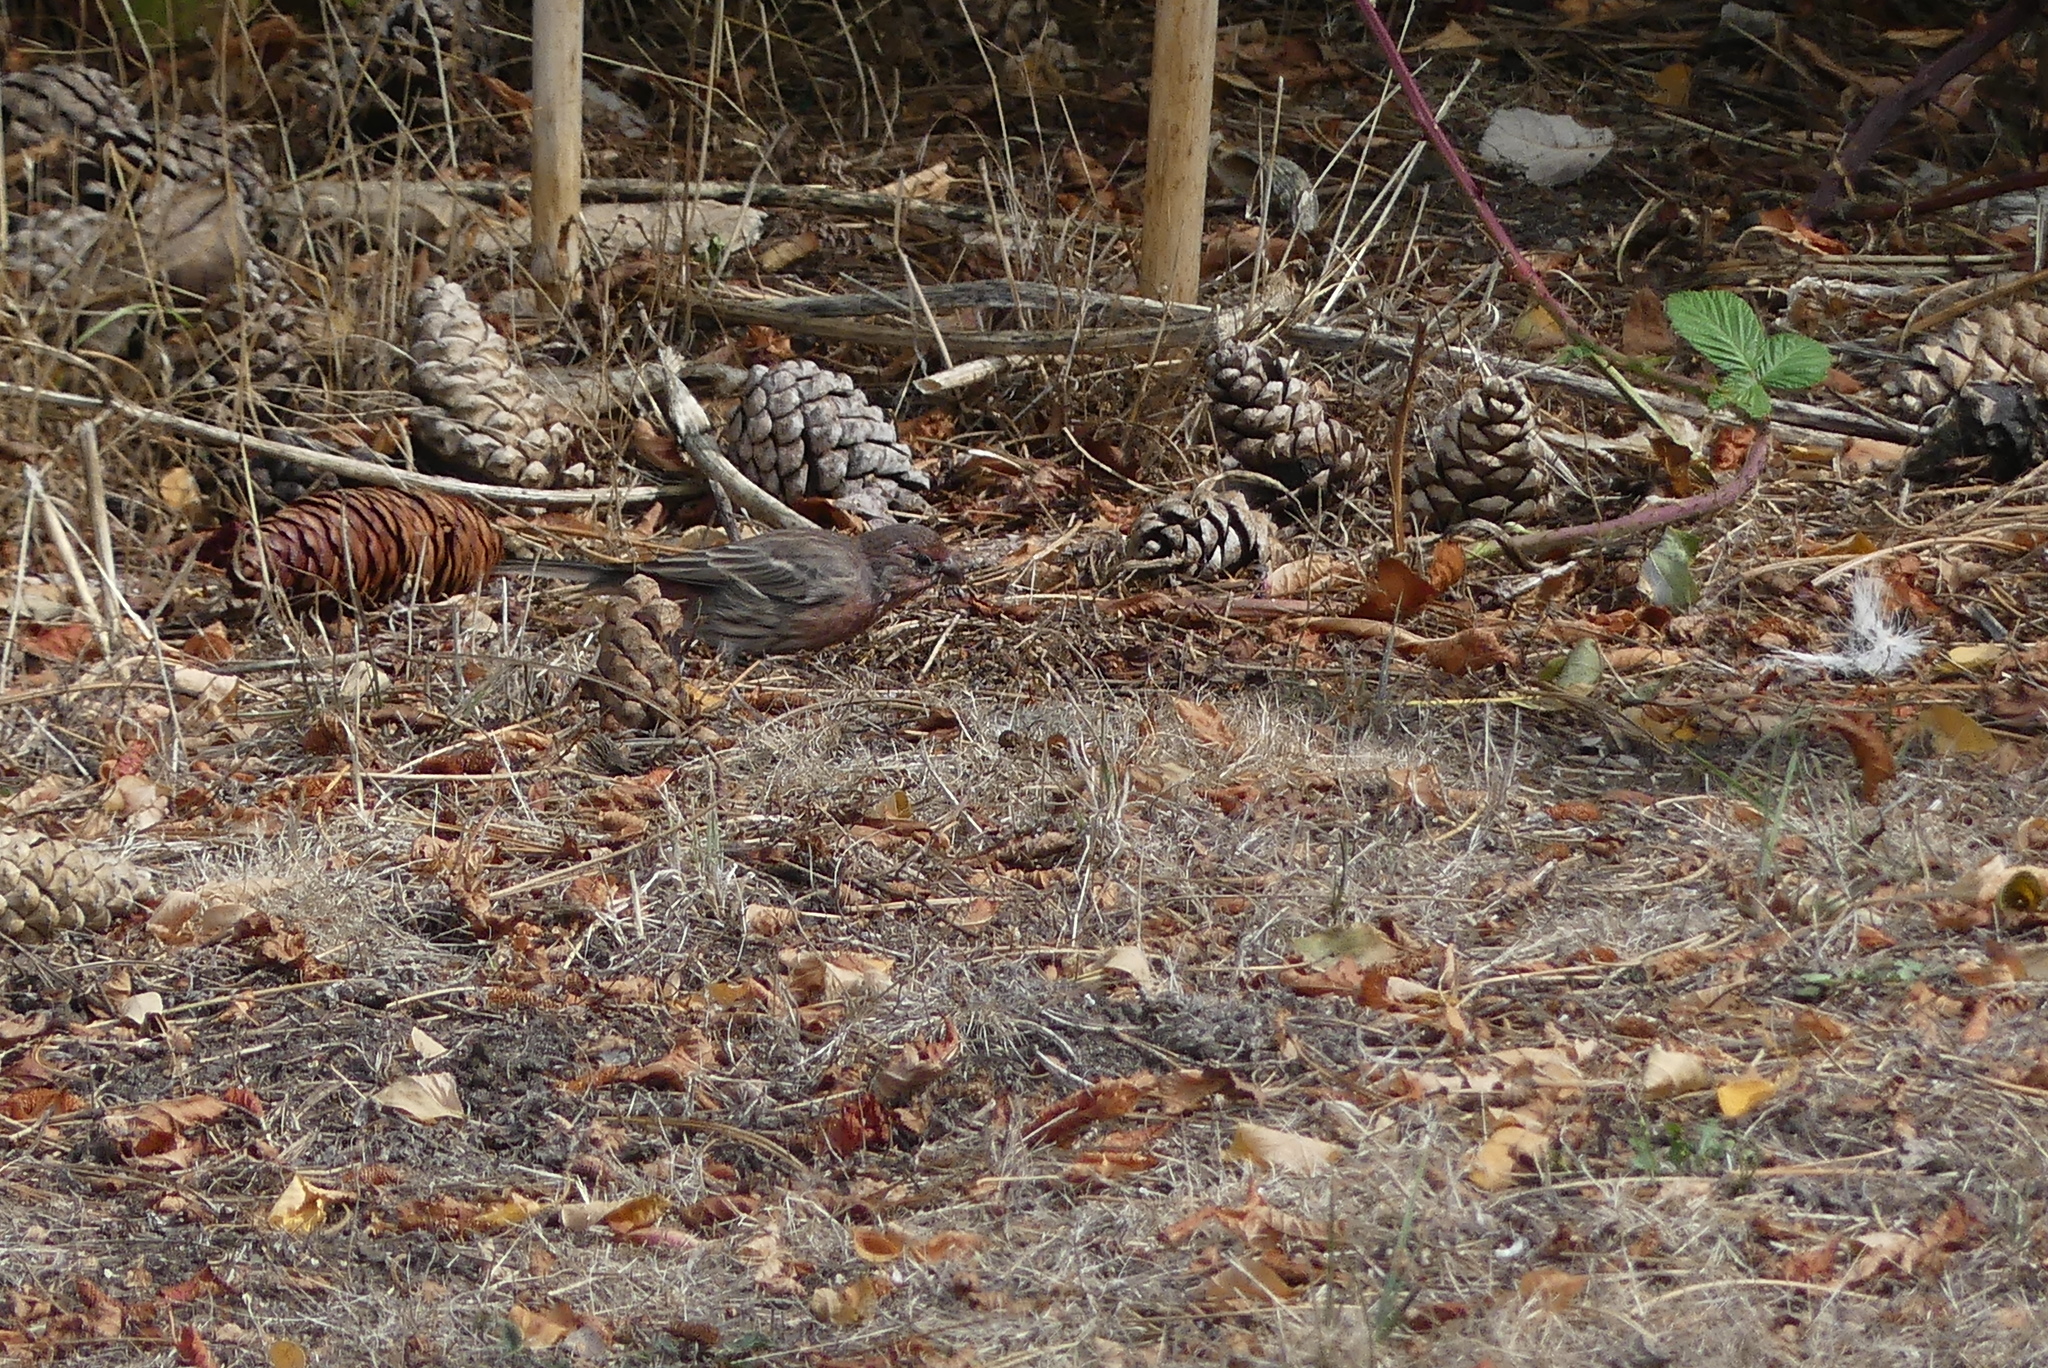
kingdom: Animalia
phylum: Chordata
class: Aves
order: Passeriformes
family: Fringillidae
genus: Haemorhous
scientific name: Haemorhous mexicanus
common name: House finch
